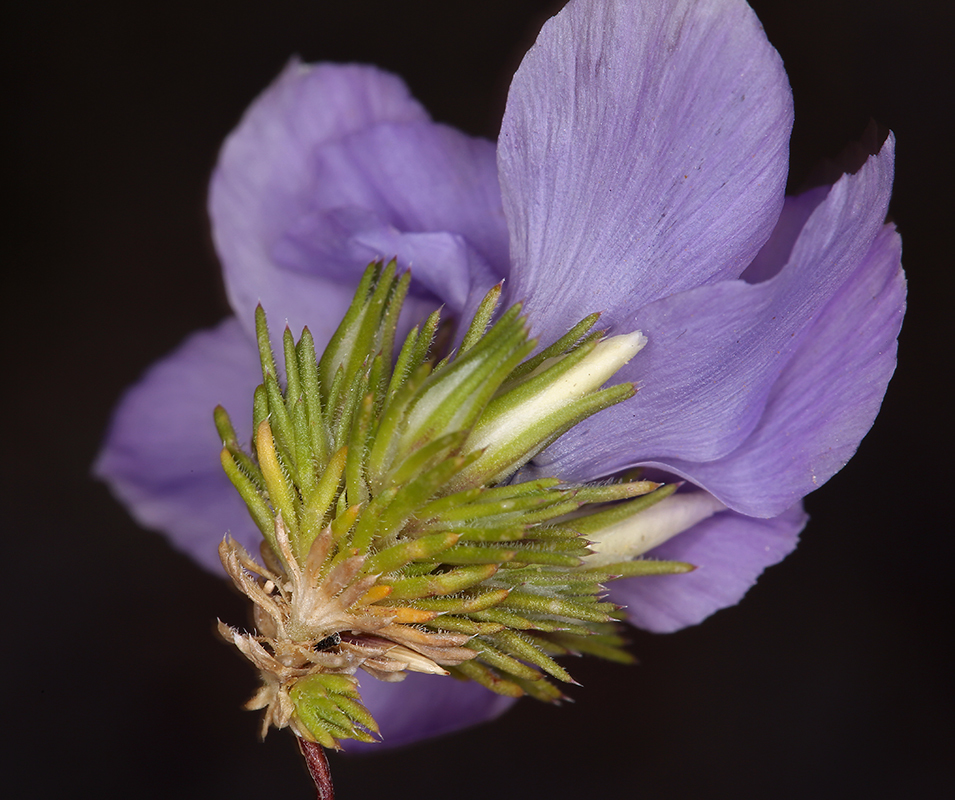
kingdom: Plantae
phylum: Tracheophyta
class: Magnoliopsida
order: Ericales
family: Polemoniaceae
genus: Linanthus
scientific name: Linanthus parryae
